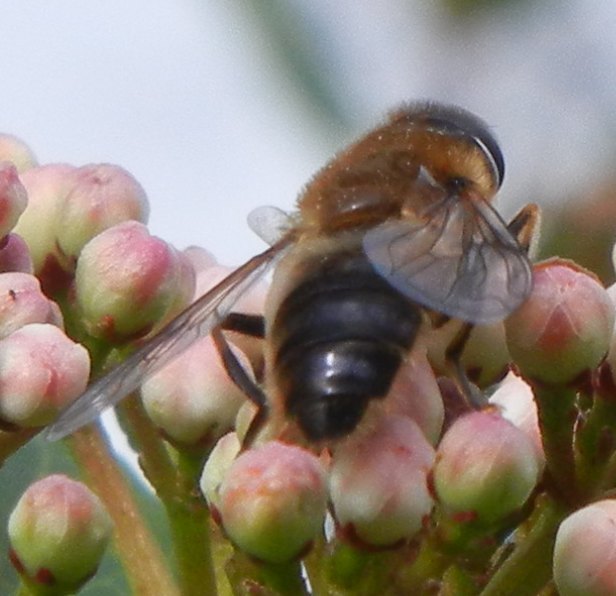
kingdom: Animalia
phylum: Arthropoda
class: Insecta
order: Diptera
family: Syrphidae
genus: Eristalis
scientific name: Eristalis pertinax
